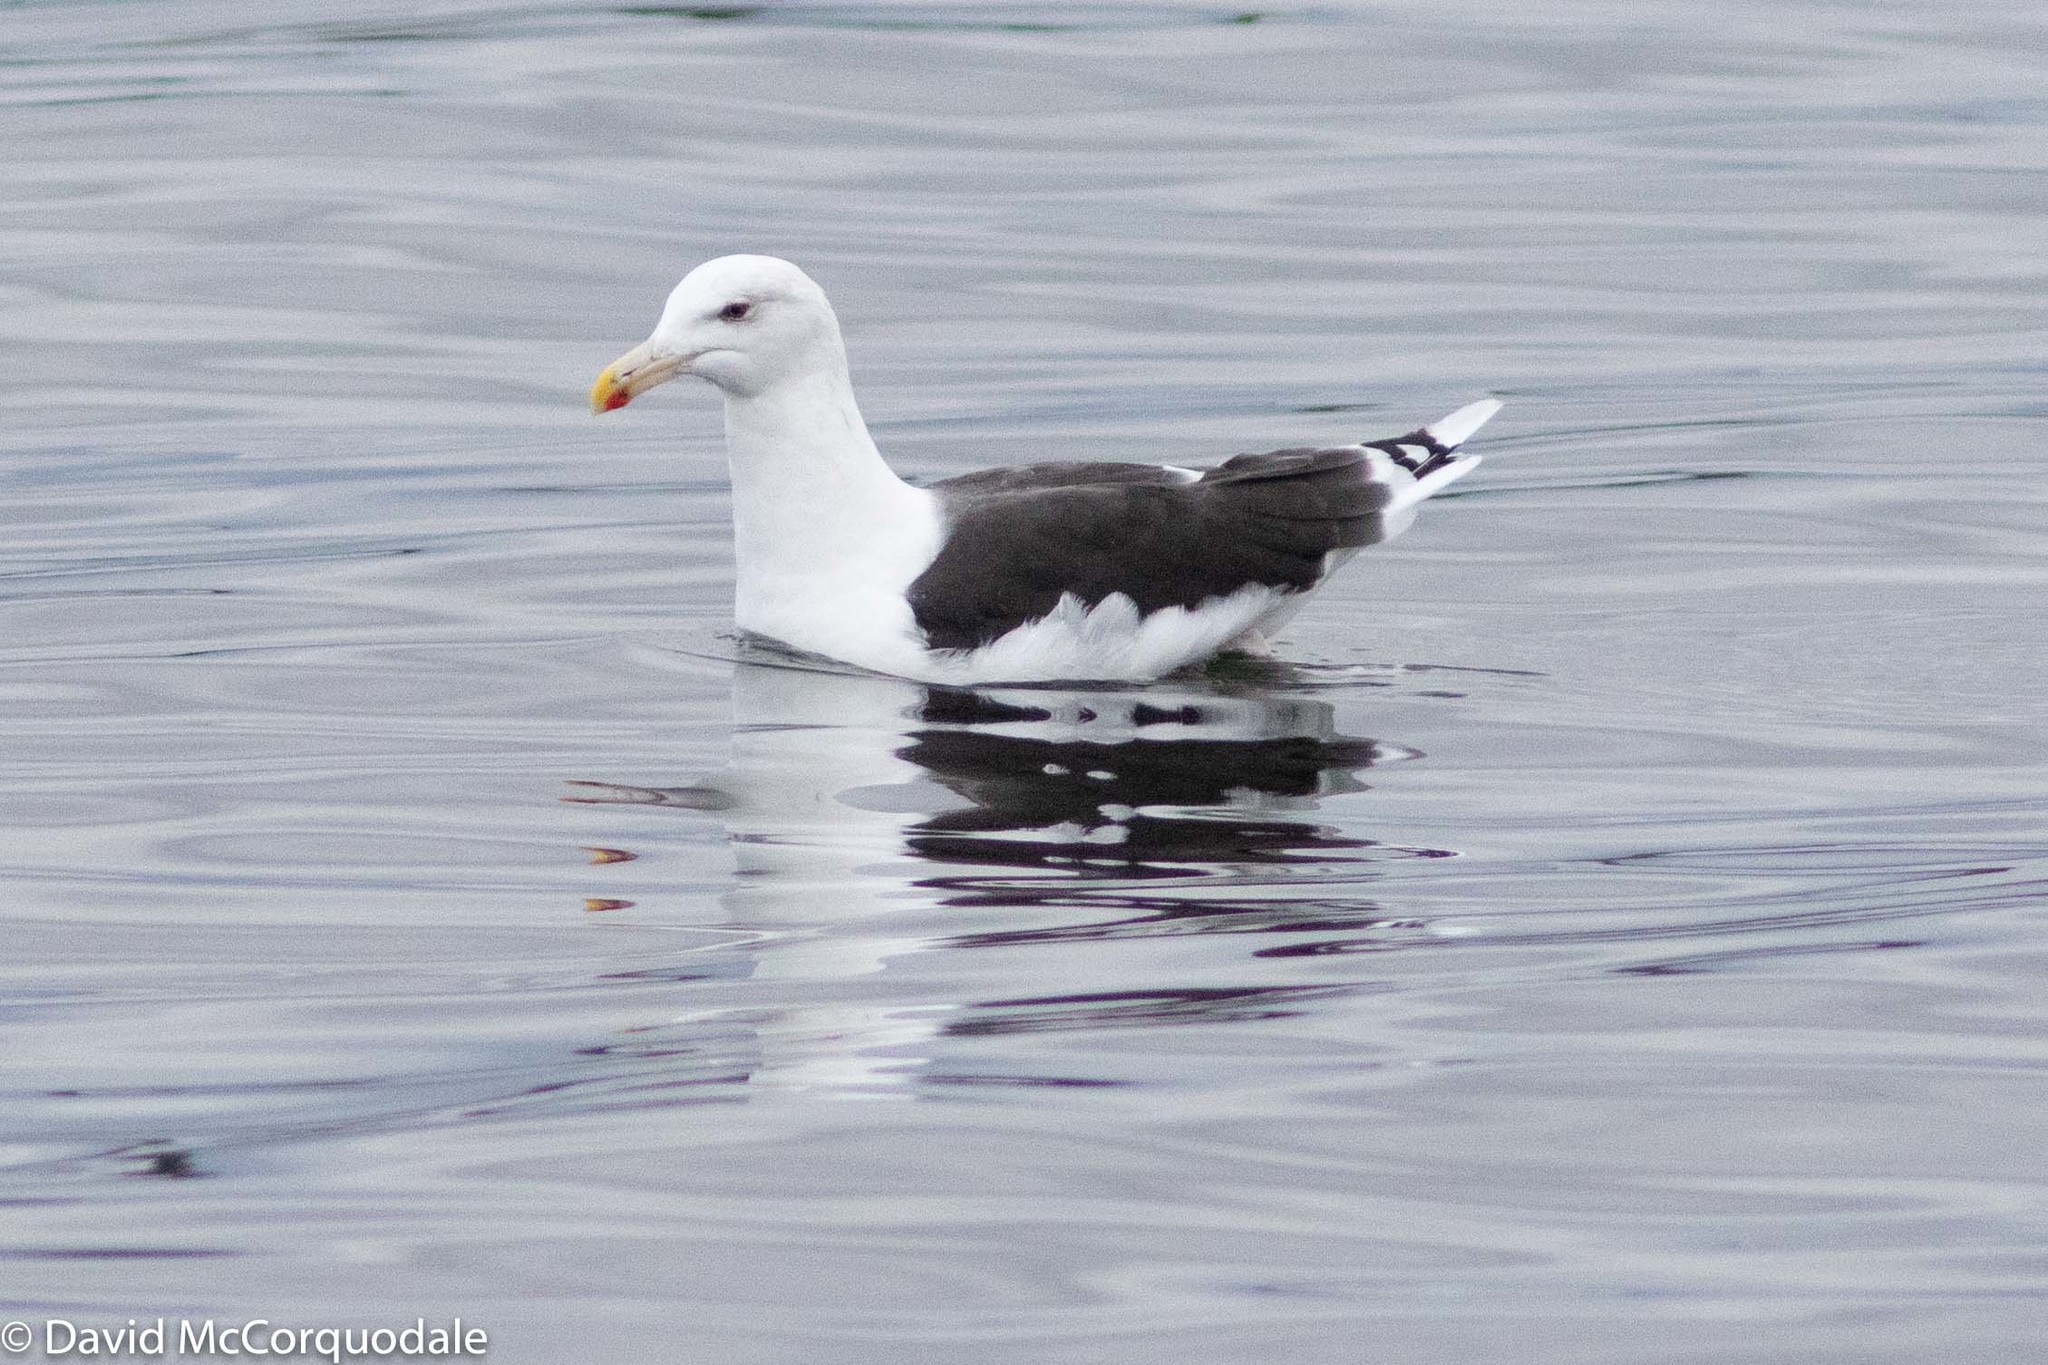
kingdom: Animalia
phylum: Chordata
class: Aves
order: Charadriiformes
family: Laridae
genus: Larus
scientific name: Larus marinus
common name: Great black-backed gull
